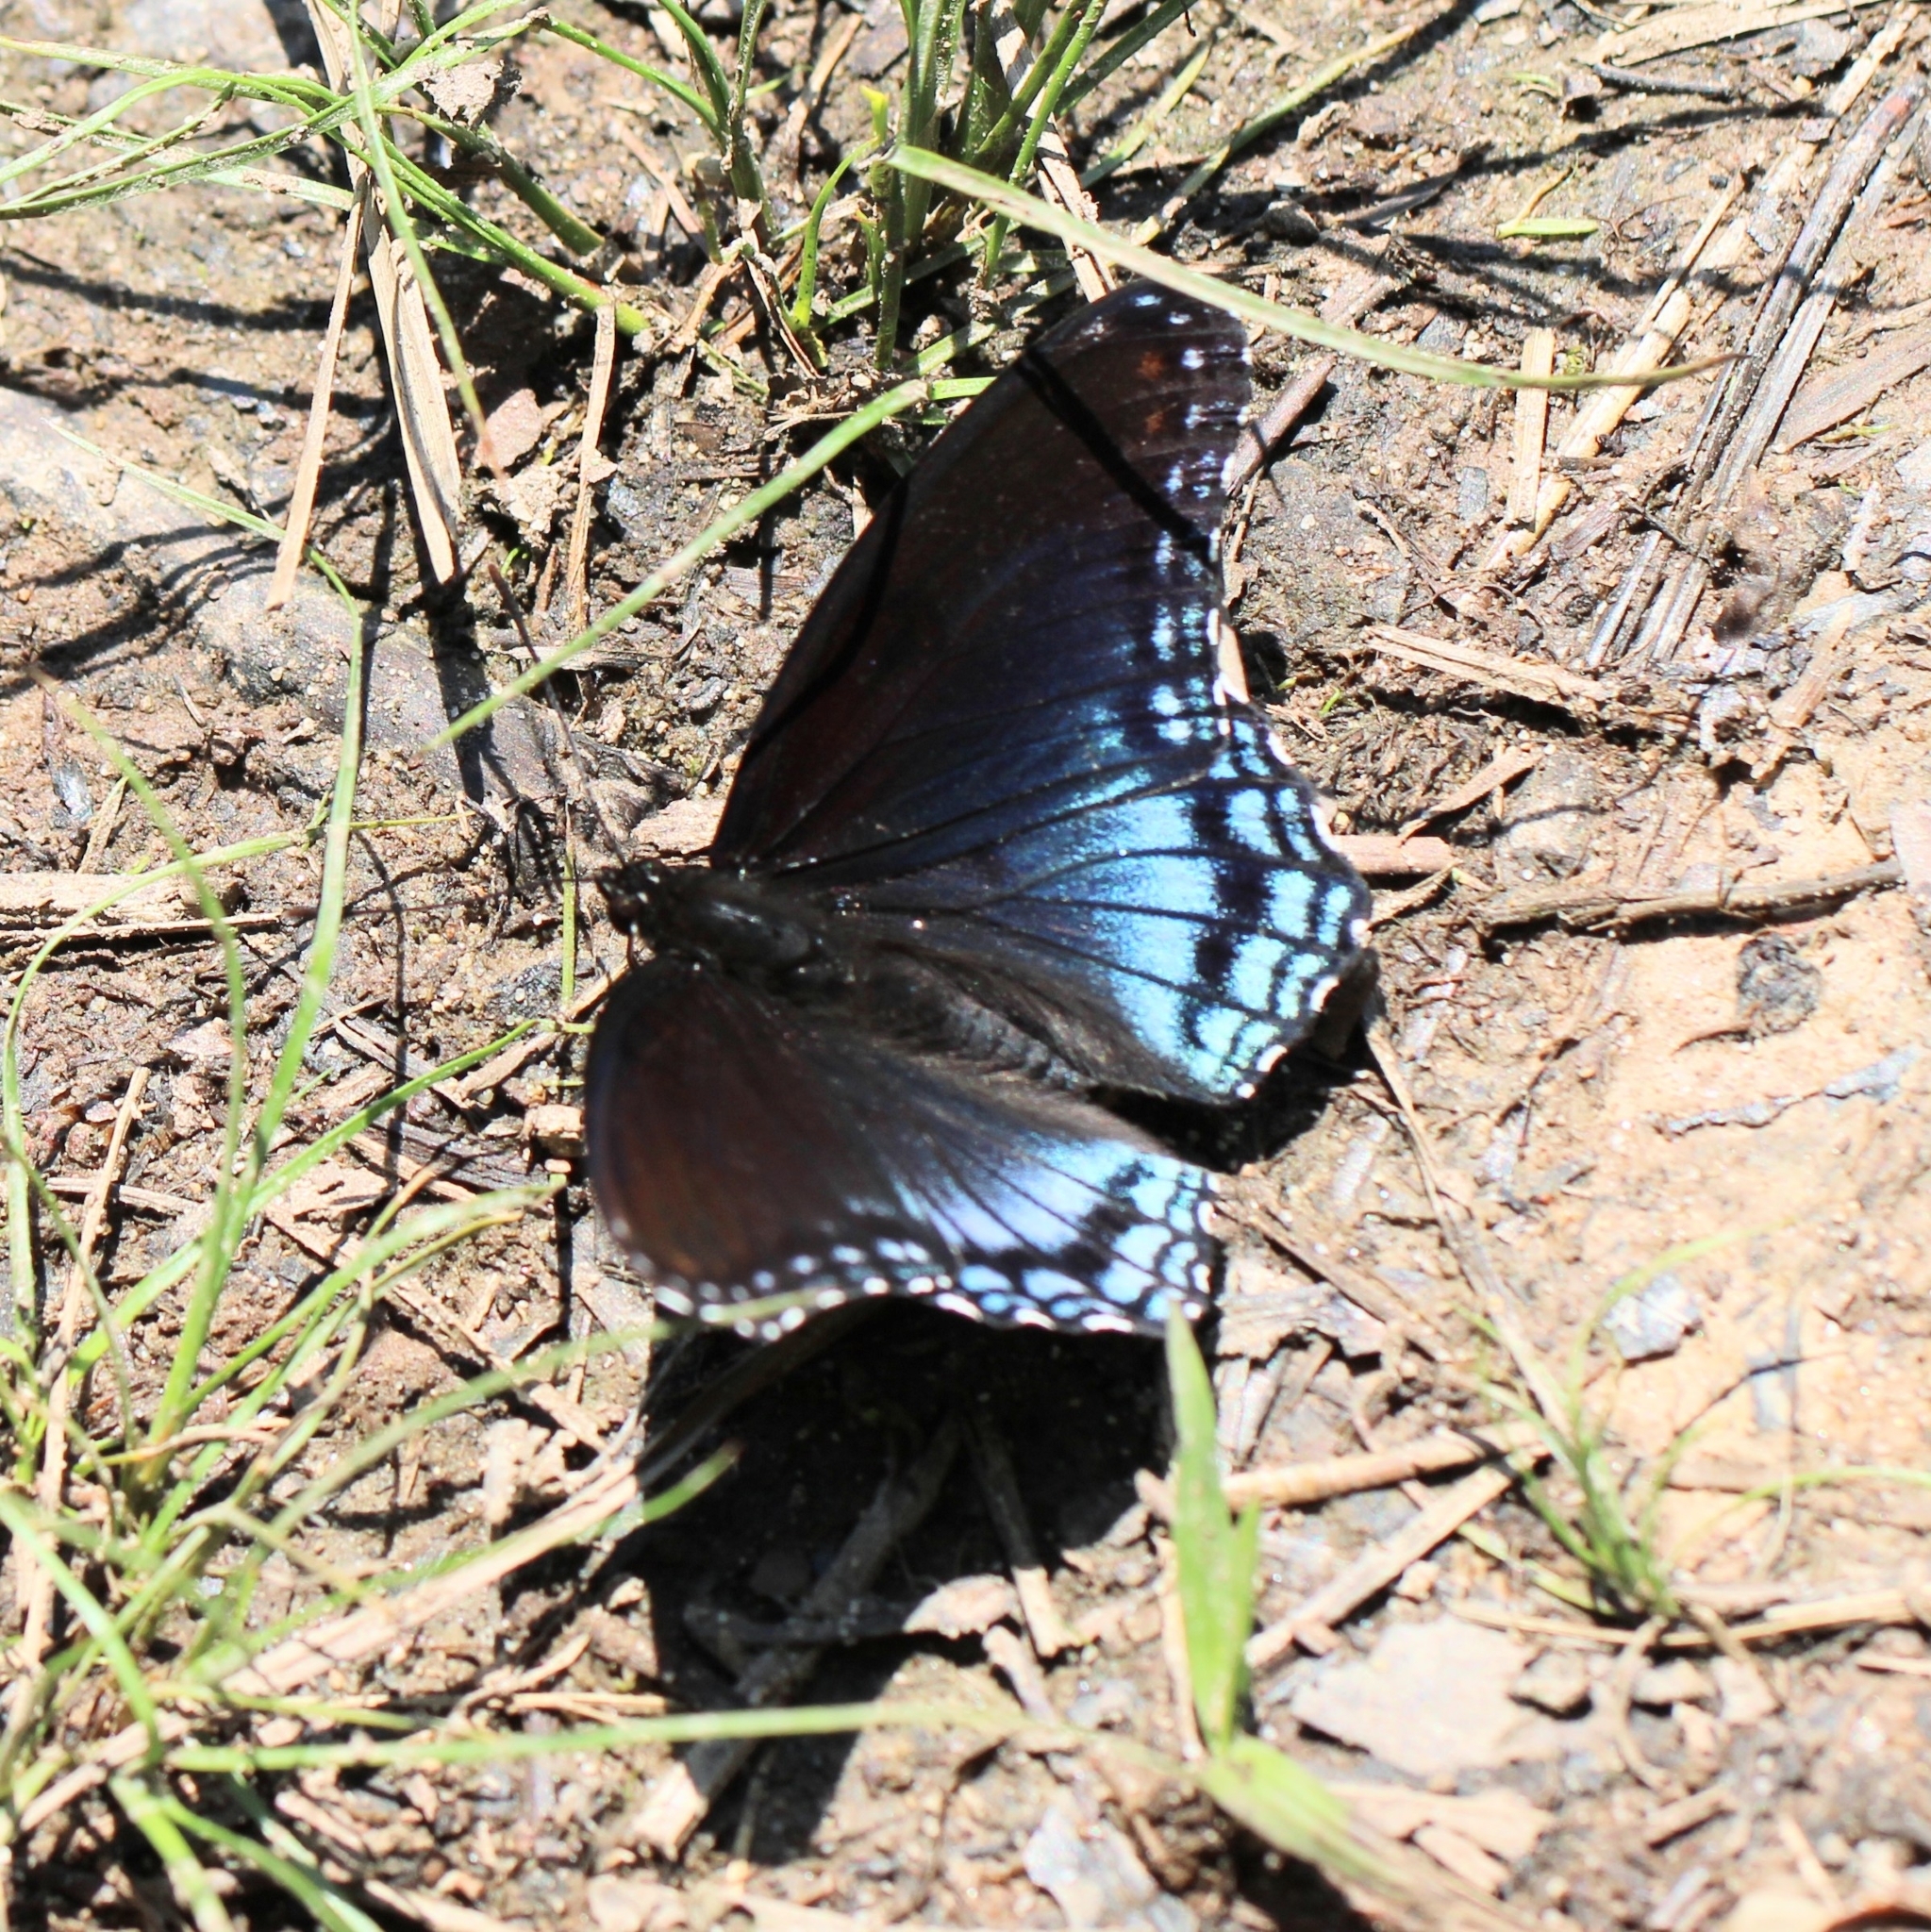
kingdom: Animalia
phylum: Arthropoda
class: Insecta
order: Lepidoptera
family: Nymphalidae
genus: Limenitis
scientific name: Limenitis astyanax
